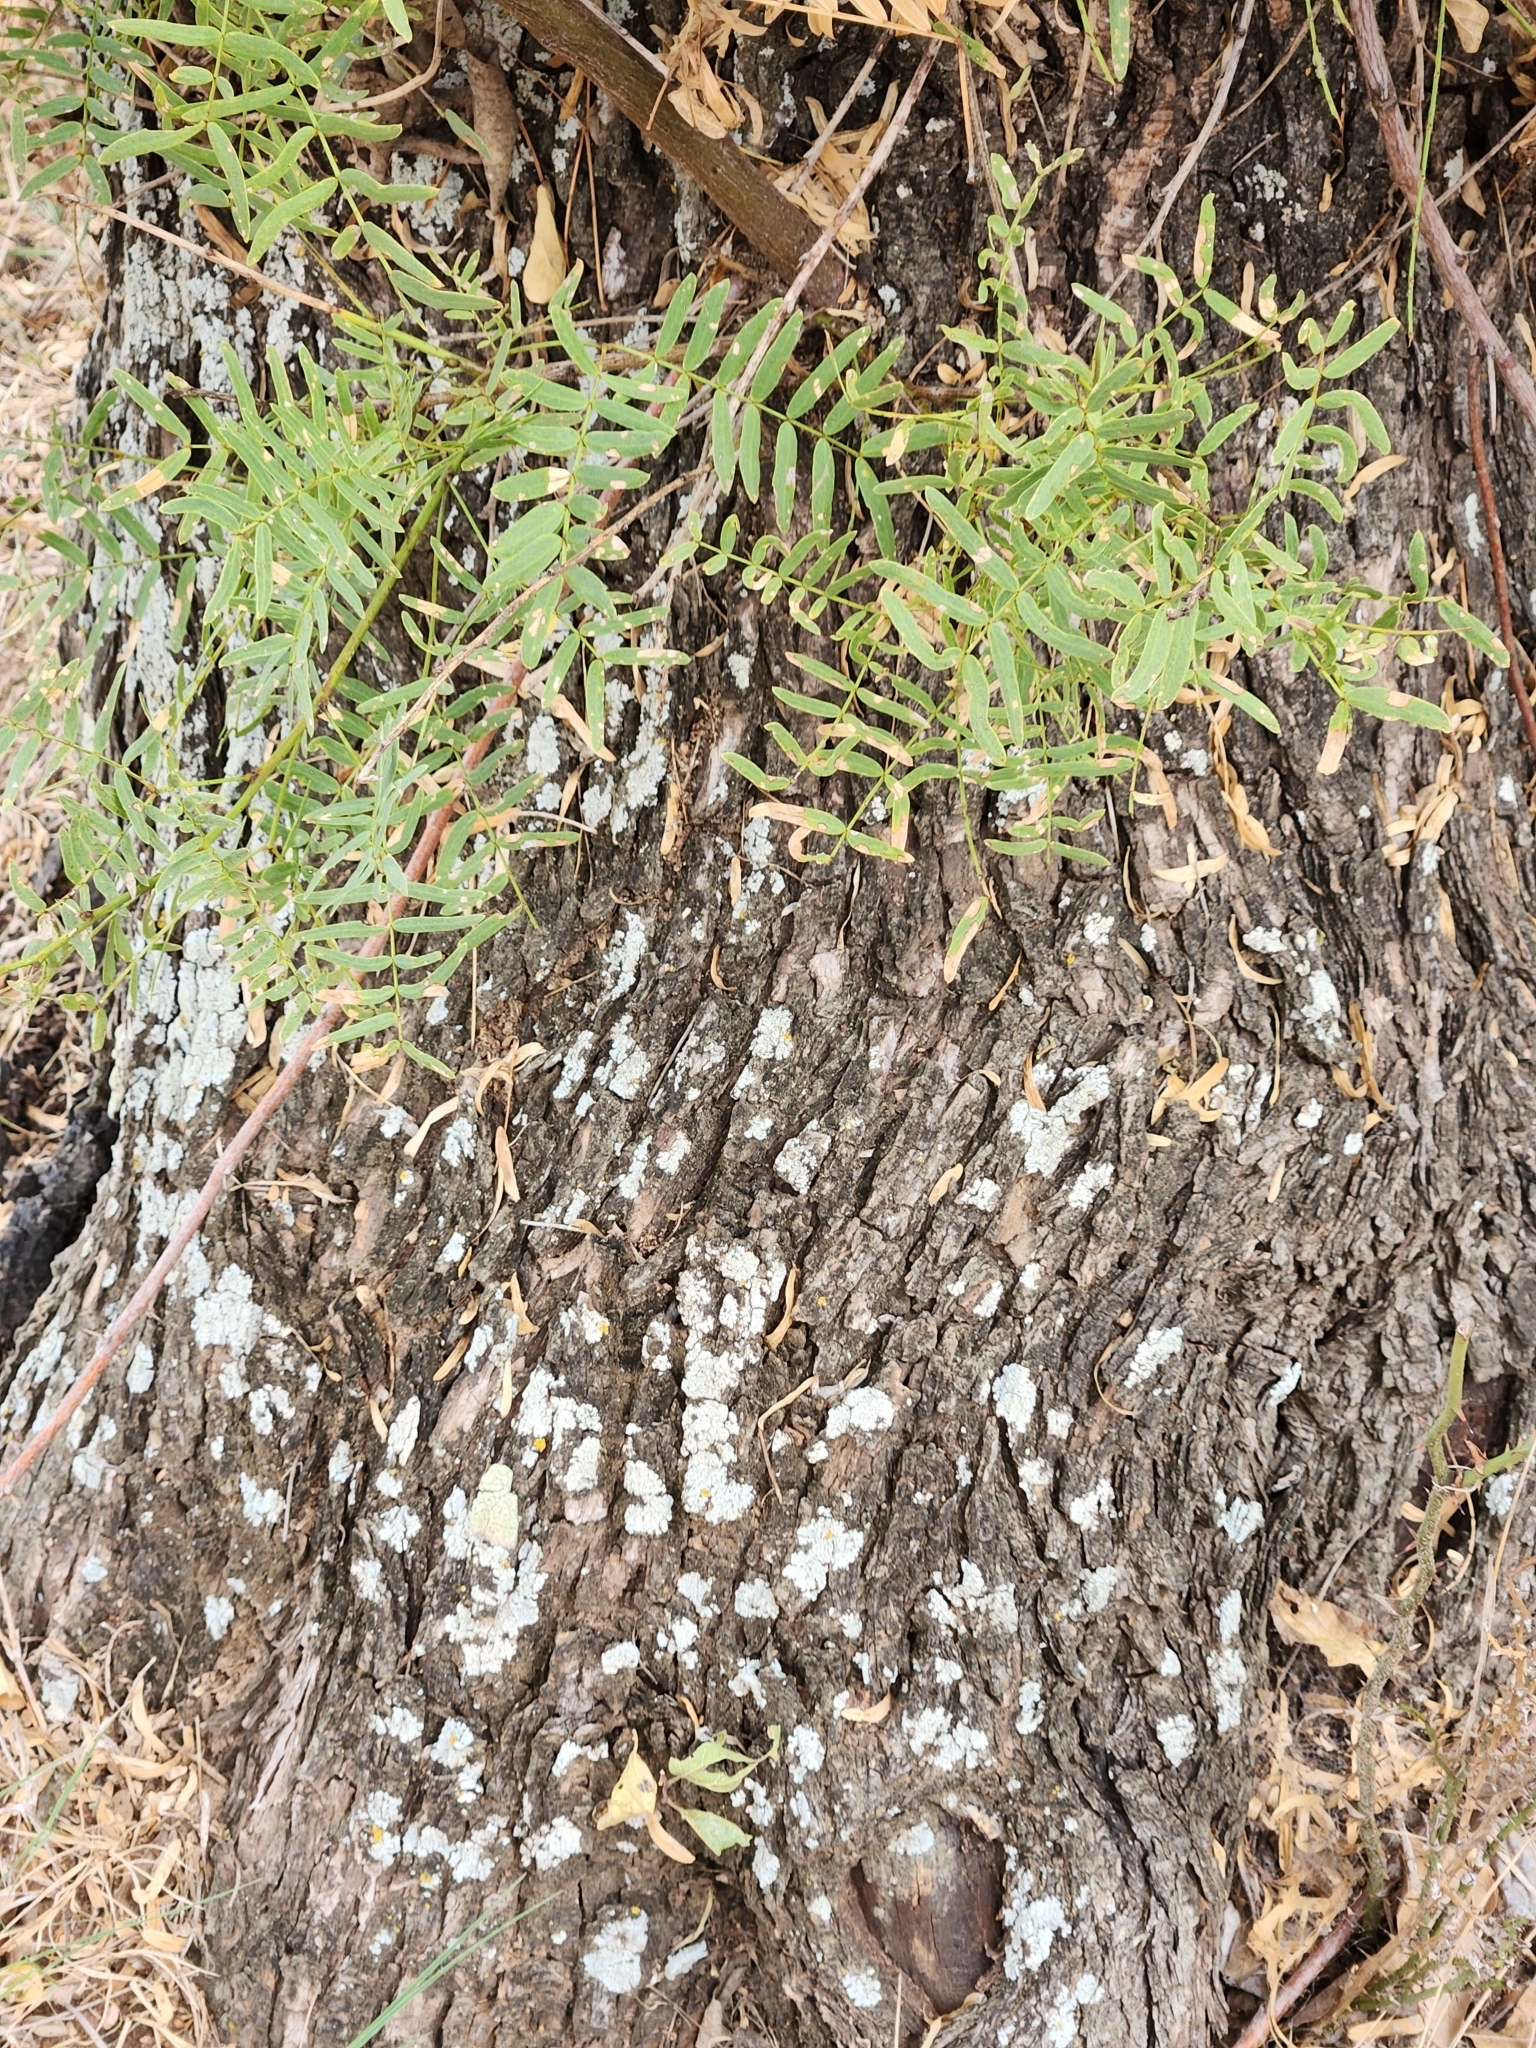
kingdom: Plantae
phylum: Tracheophyta
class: Magnoliopsida
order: Fabales
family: Fabaceae
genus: Prosopis
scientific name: Prosopis glandulosa
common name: Honey mesquite
